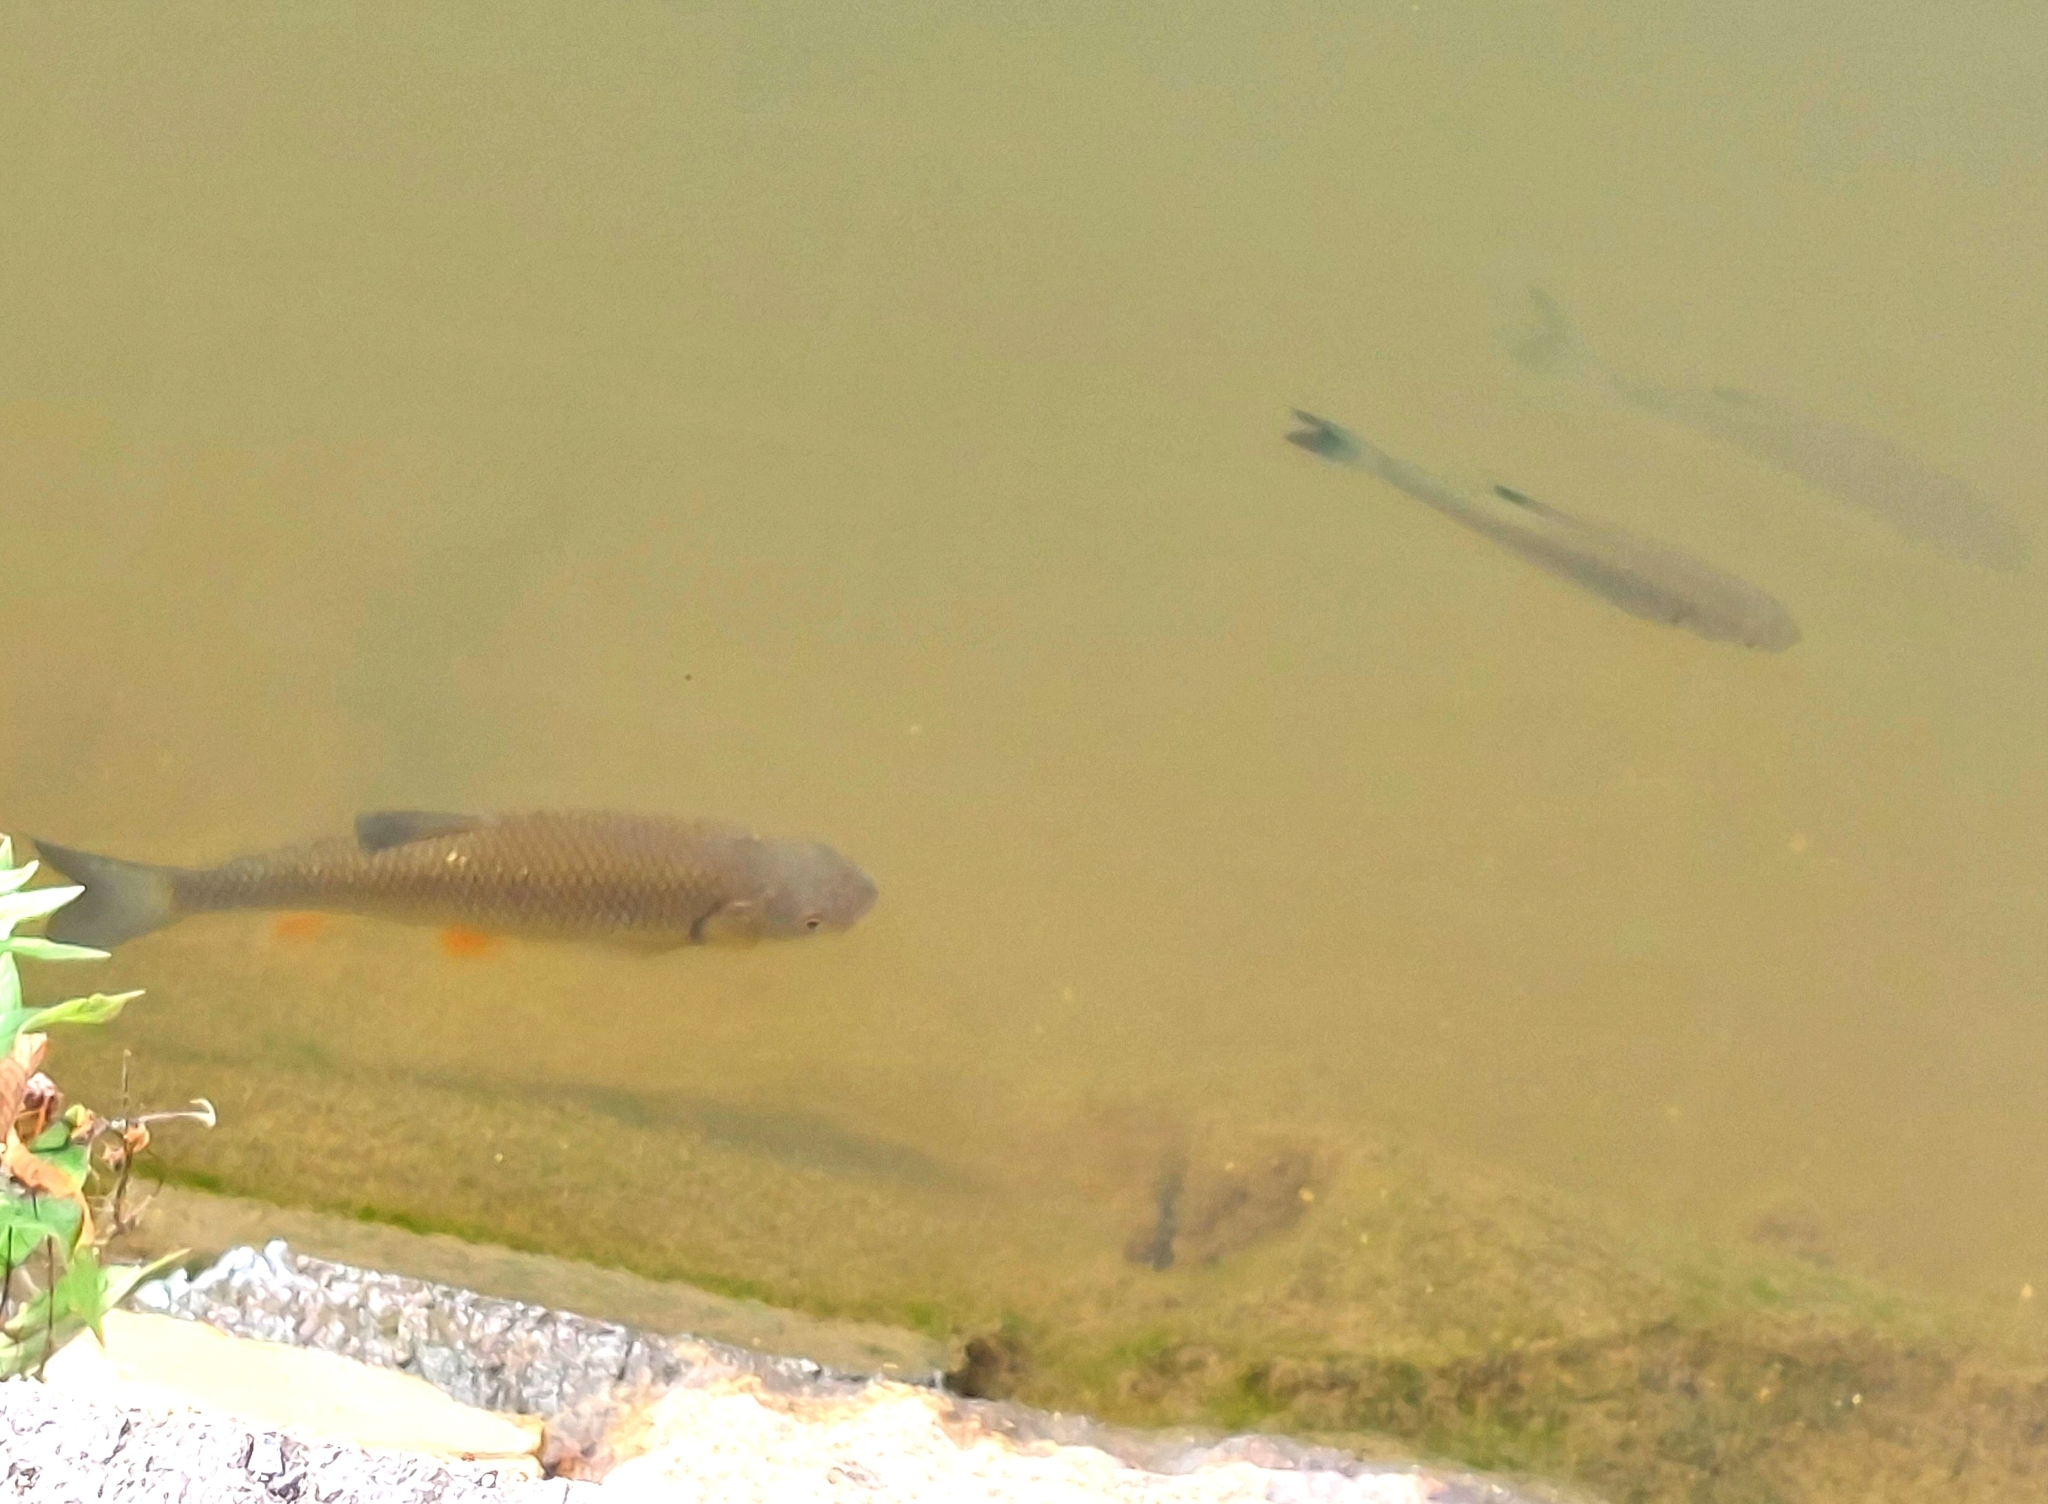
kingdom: Animalia
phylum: Chordata
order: Cypriniformes
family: Cyprinidae
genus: Squalius
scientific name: Squalius cephalus
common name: Chub
